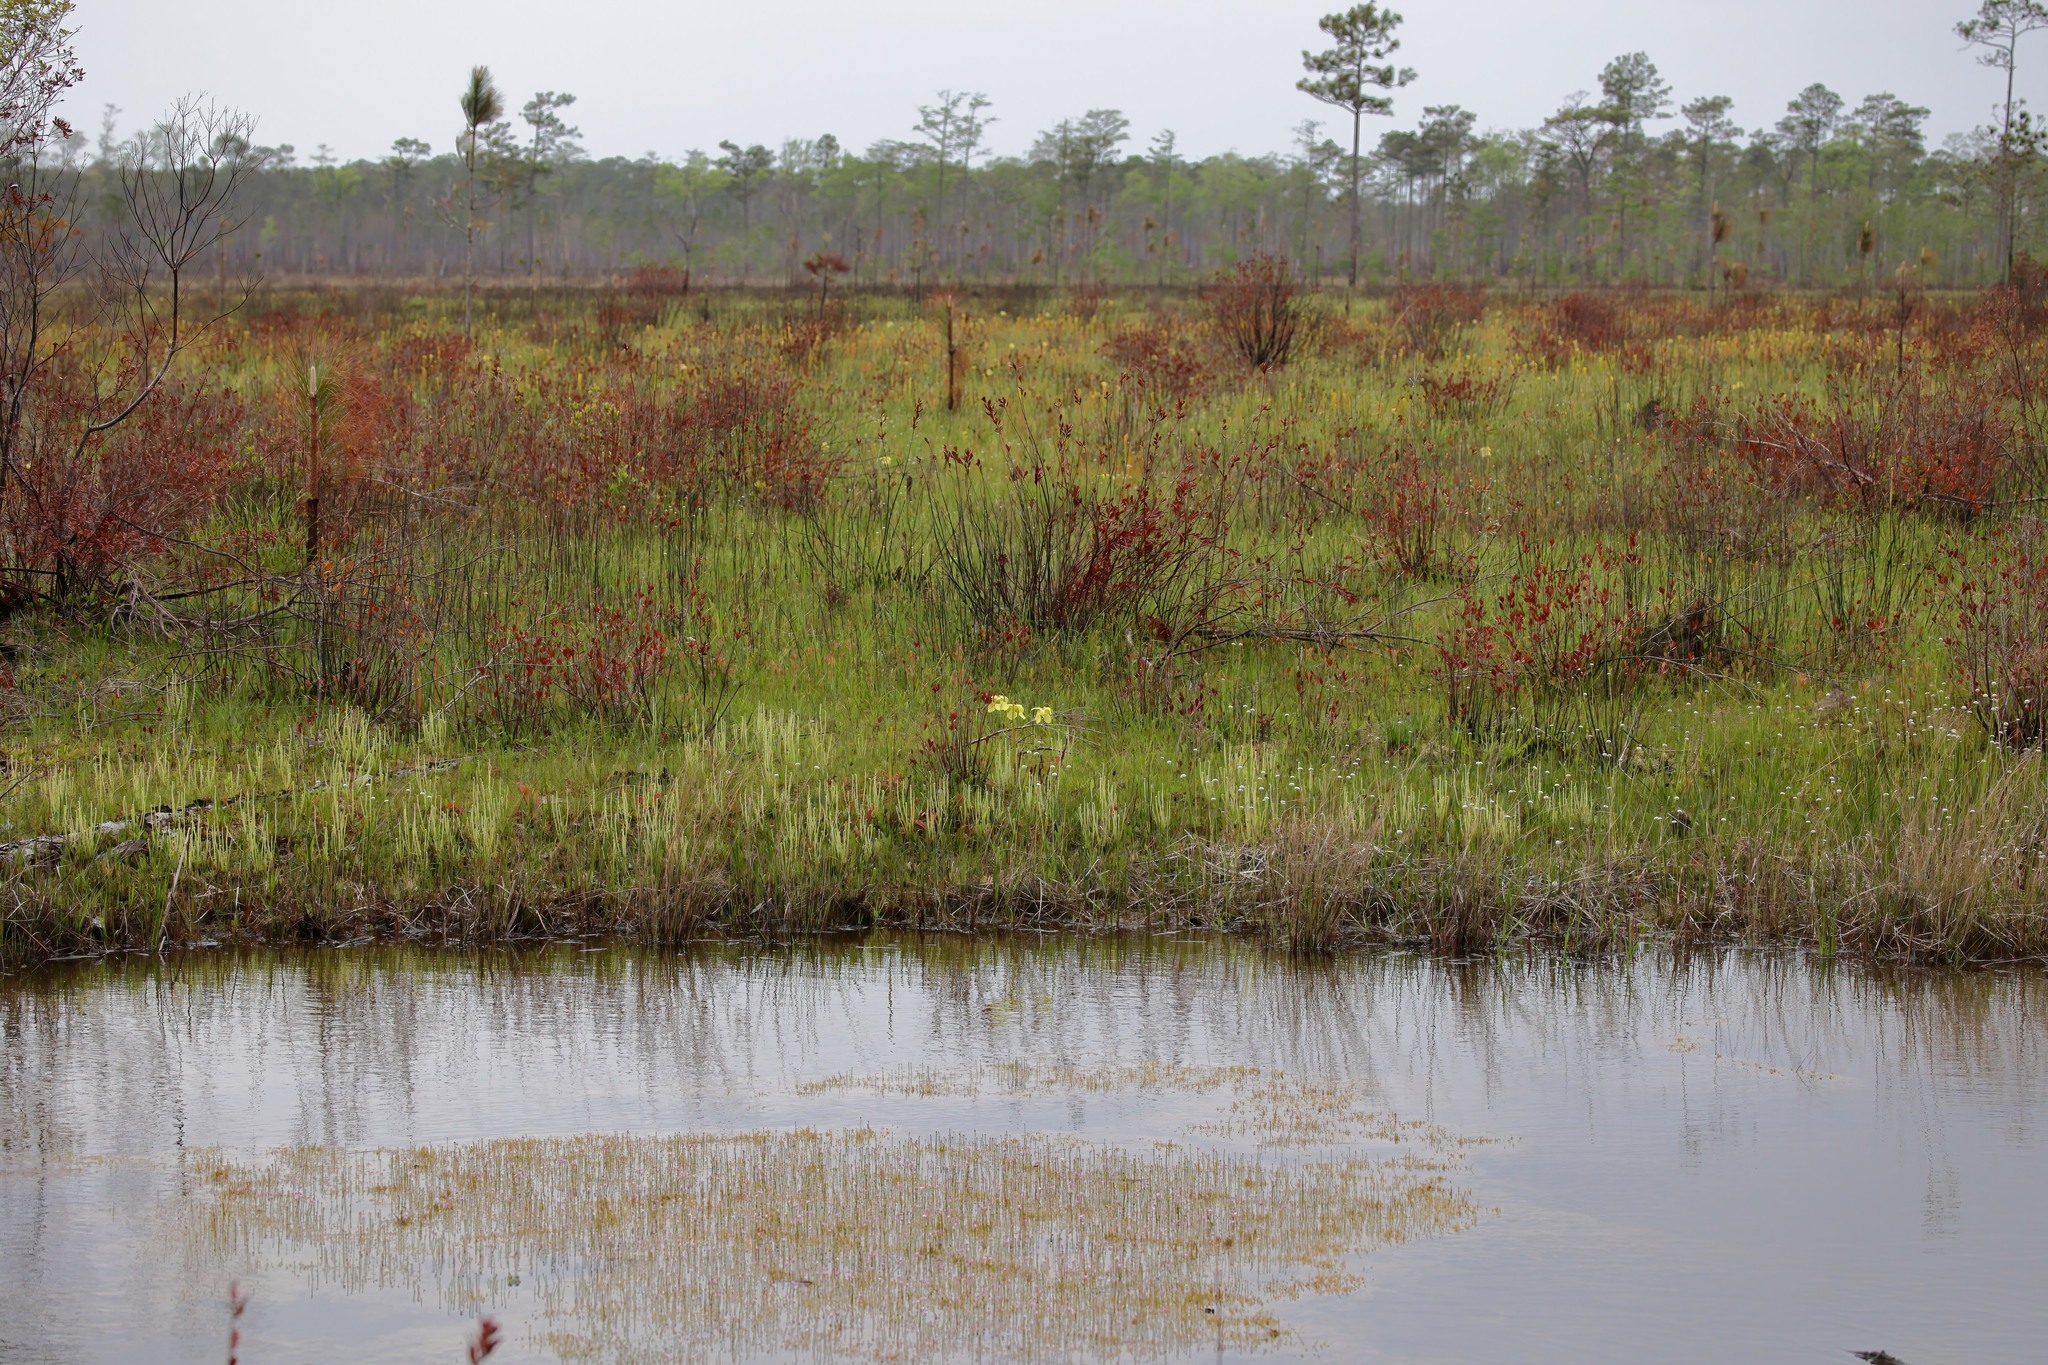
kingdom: Plantae
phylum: Tracheophyta
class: Magnoliopsida
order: Fabales
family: Polygalaceae
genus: Polygala
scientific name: Polygala crenata
